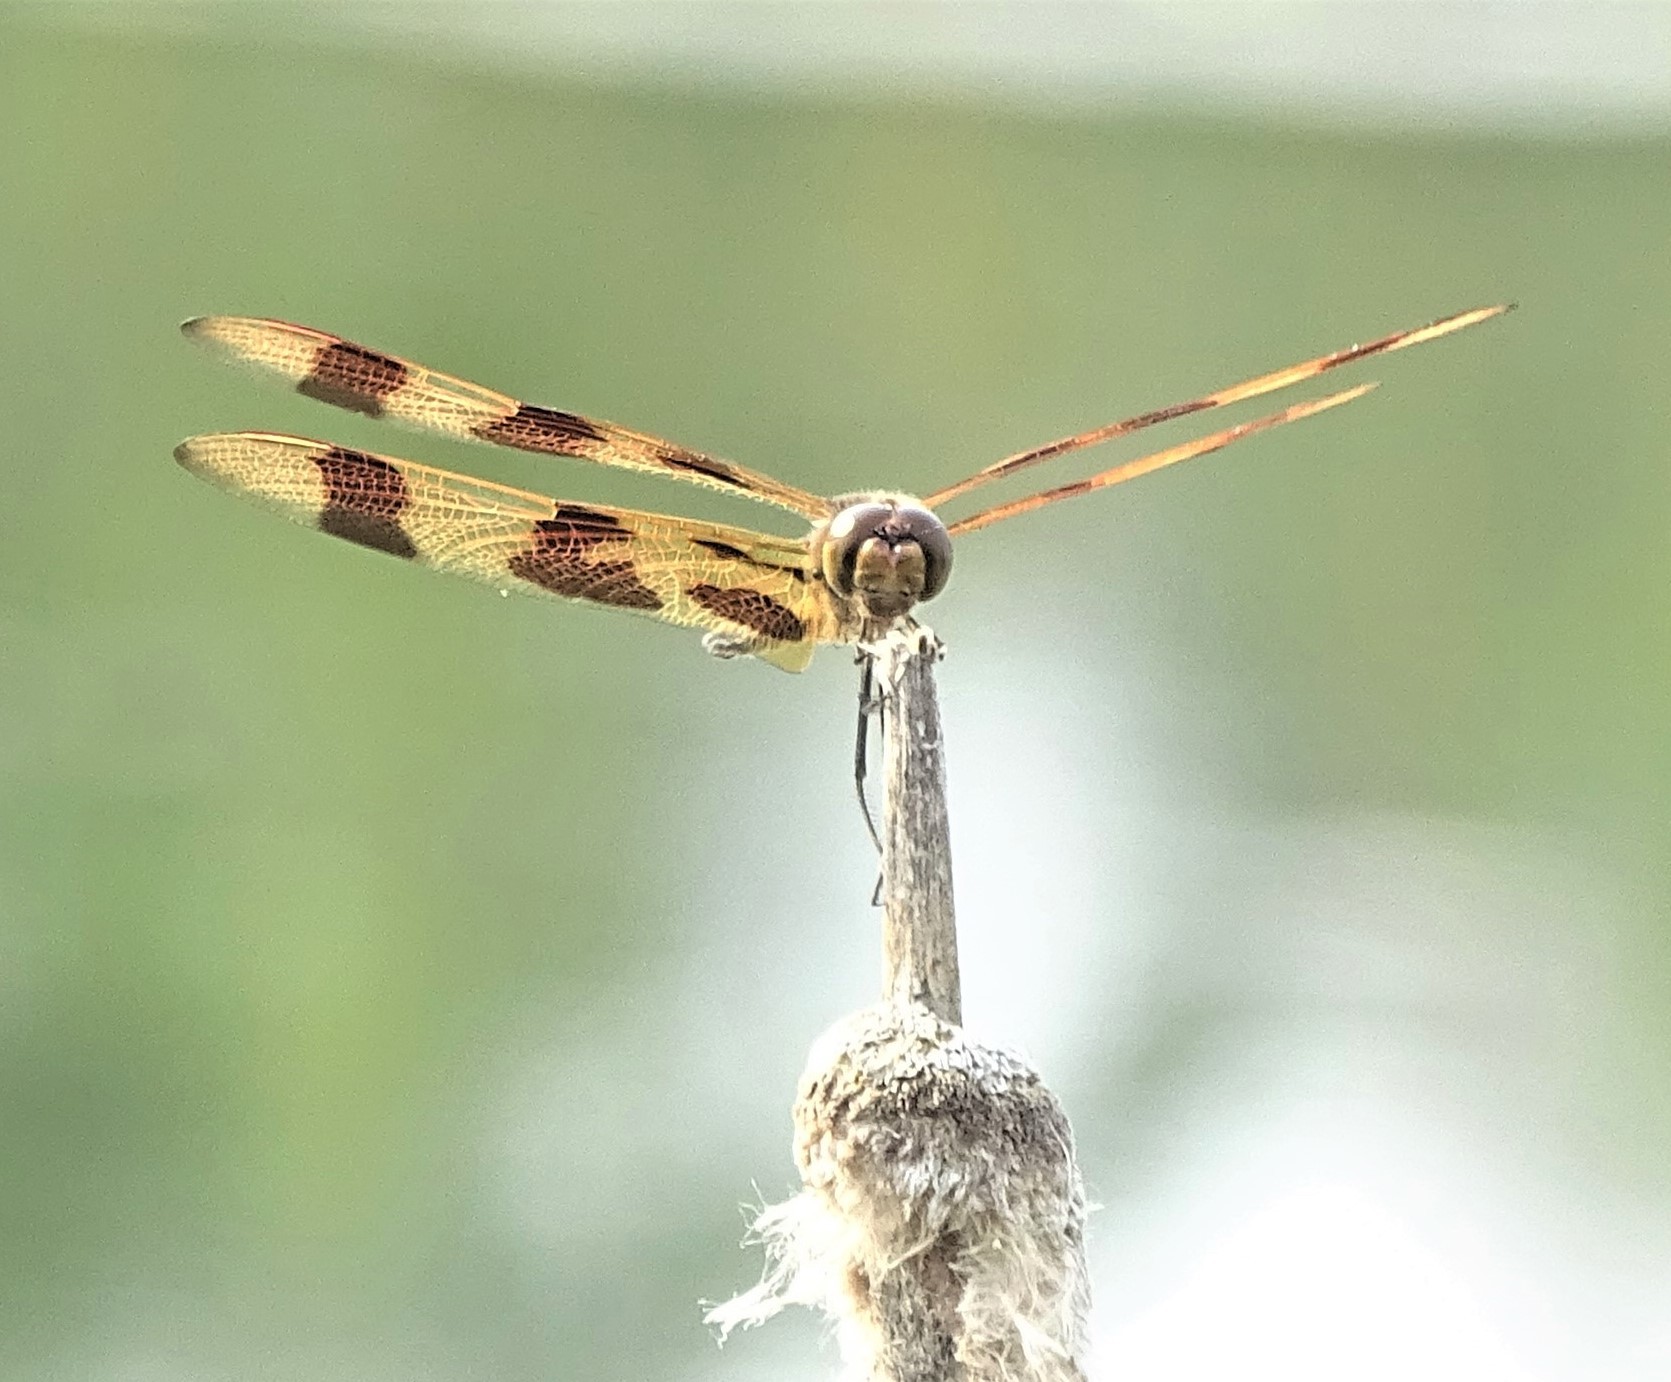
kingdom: Animalia
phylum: Arthropoda
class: Insecta
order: Odonata
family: Libellulidae
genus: Celithemis
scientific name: Celithemis eponina
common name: Halloween pennant
